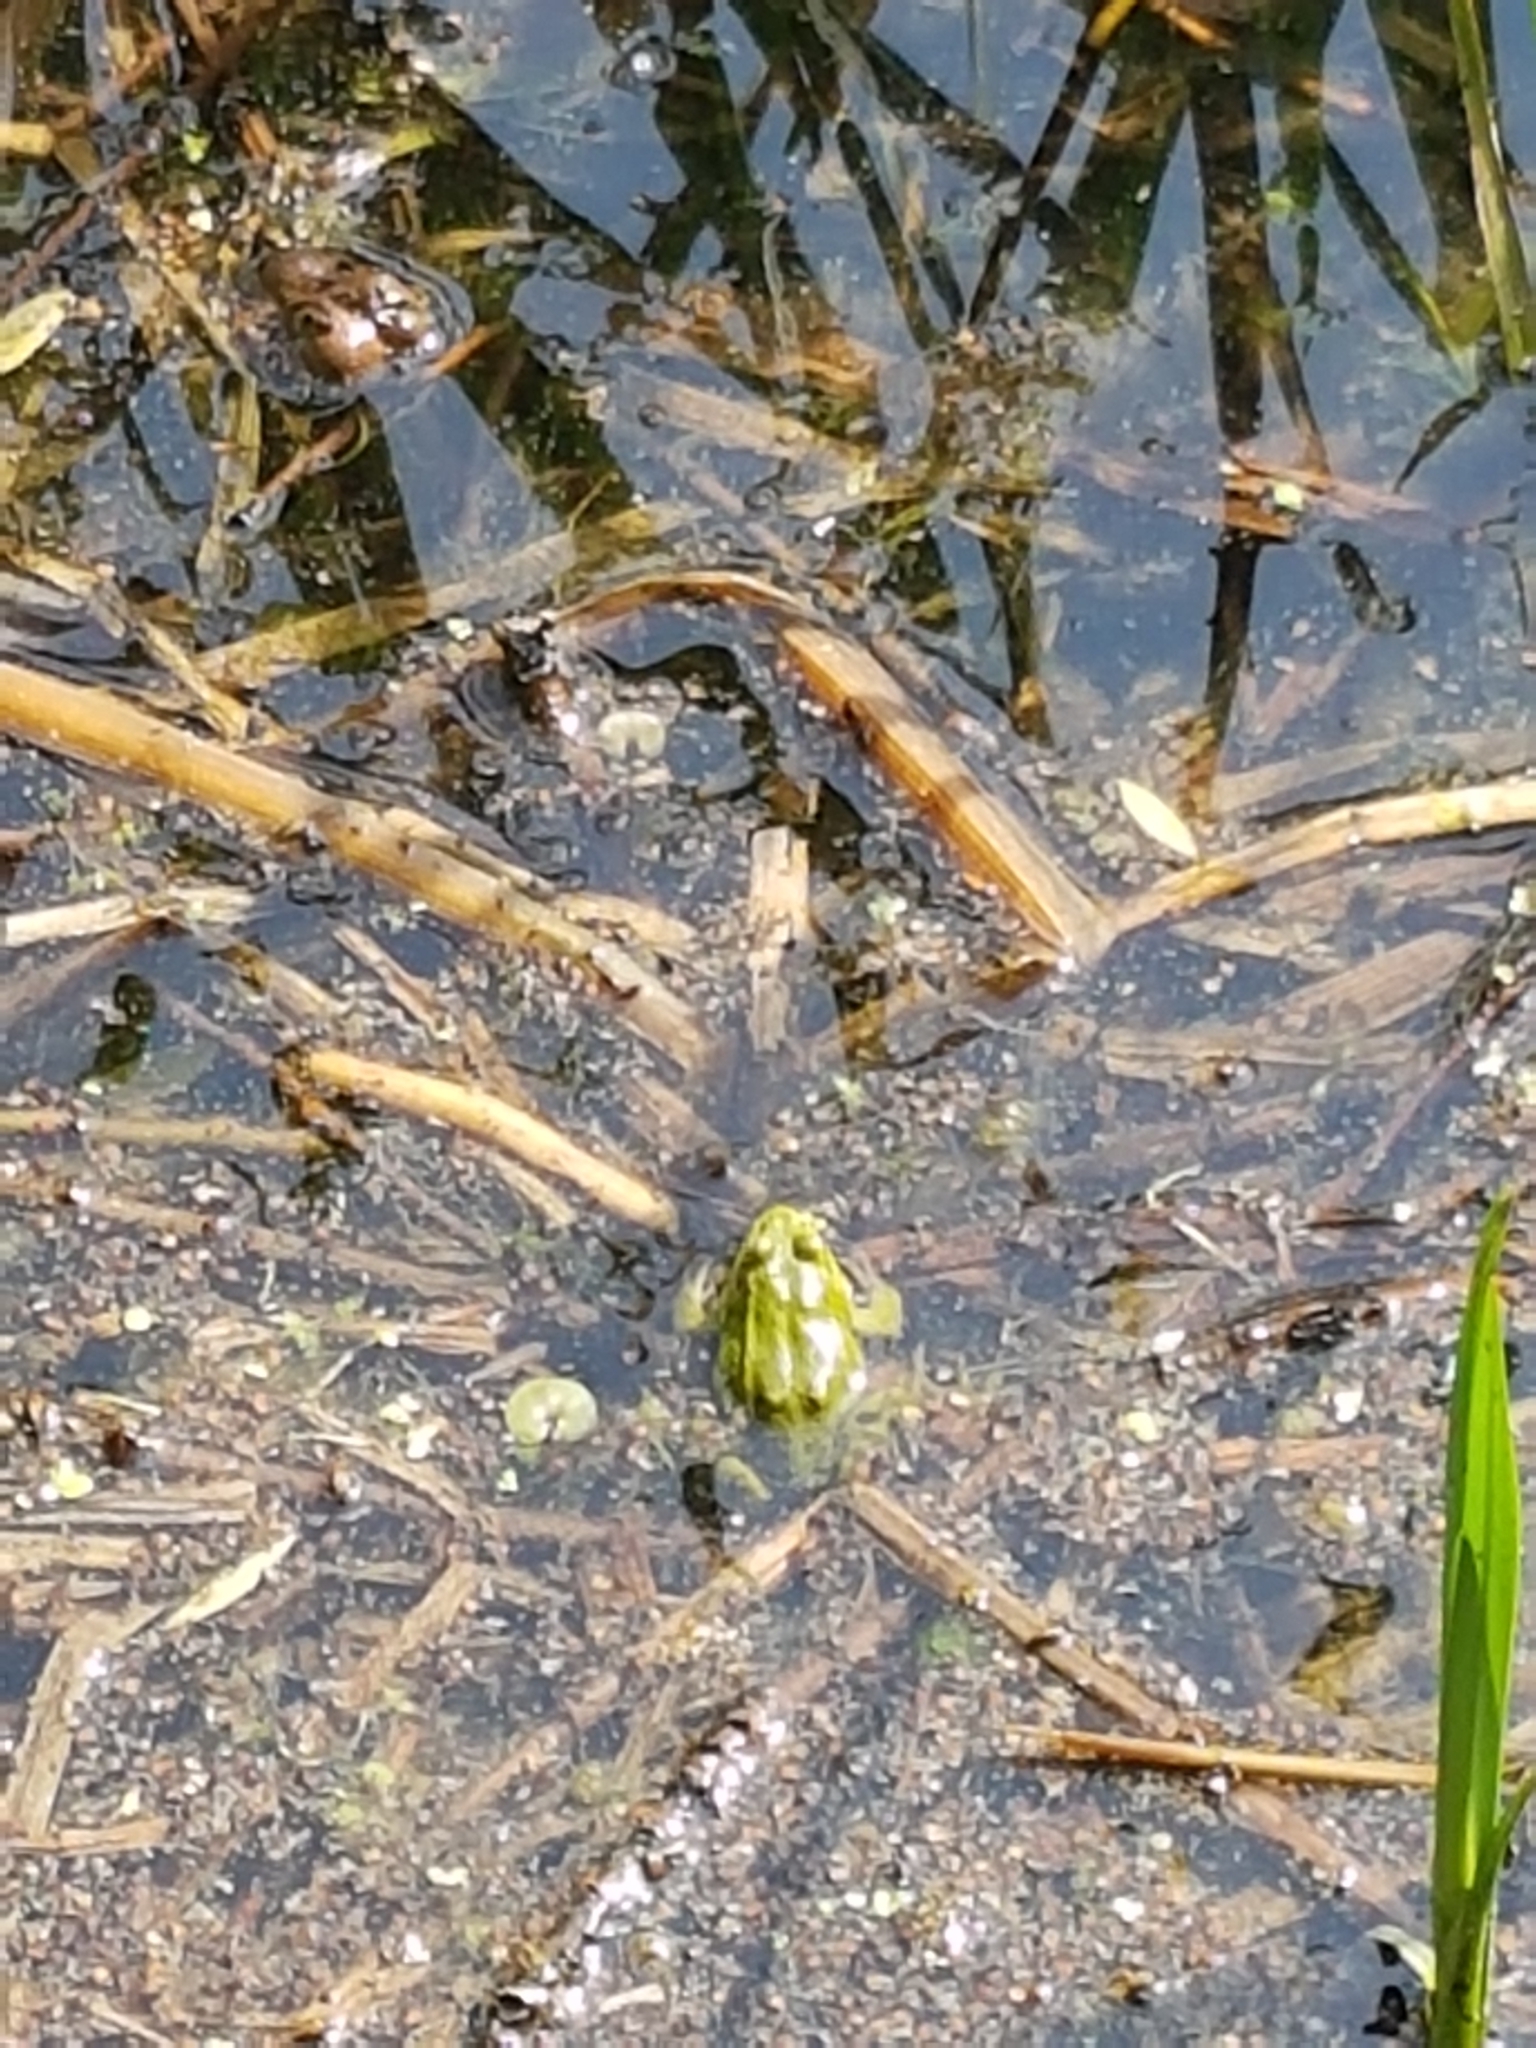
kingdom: Animalia
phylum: Chordata
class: Amphibia
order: Anura
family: Ranidae
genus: Pelophylax
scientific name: Pelophylax ridibundus
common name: Marsh frog
